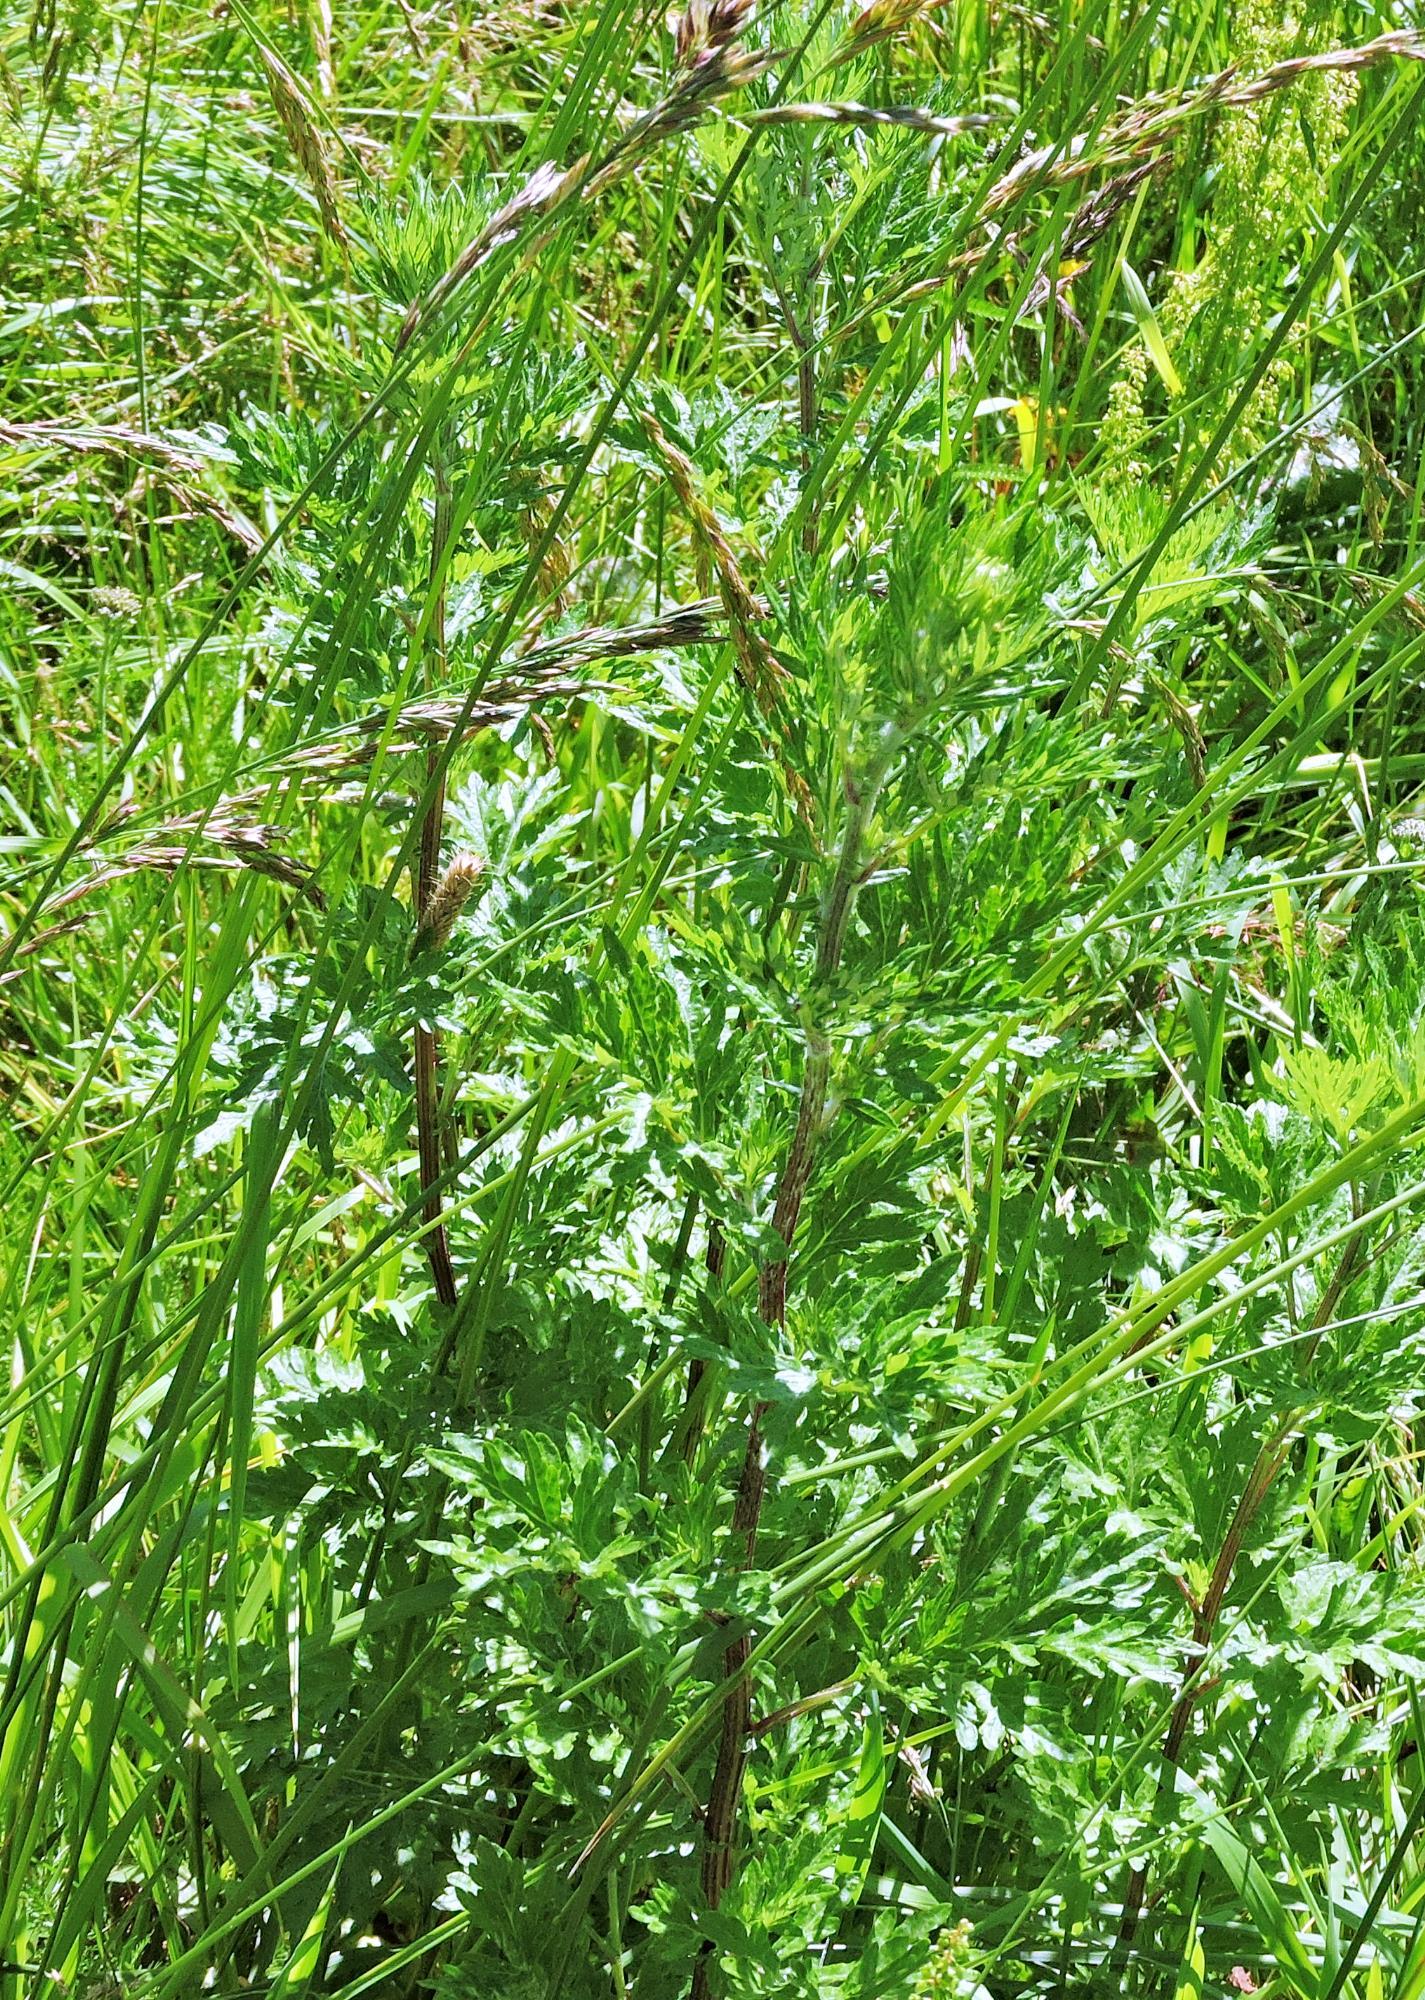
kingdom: Plantae
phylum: Tracheophyta
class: Magnoliopsida
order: Asterales
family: Asteraceae
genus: Artemisia
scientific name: Artemisia vulgaris
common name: Mugwort
